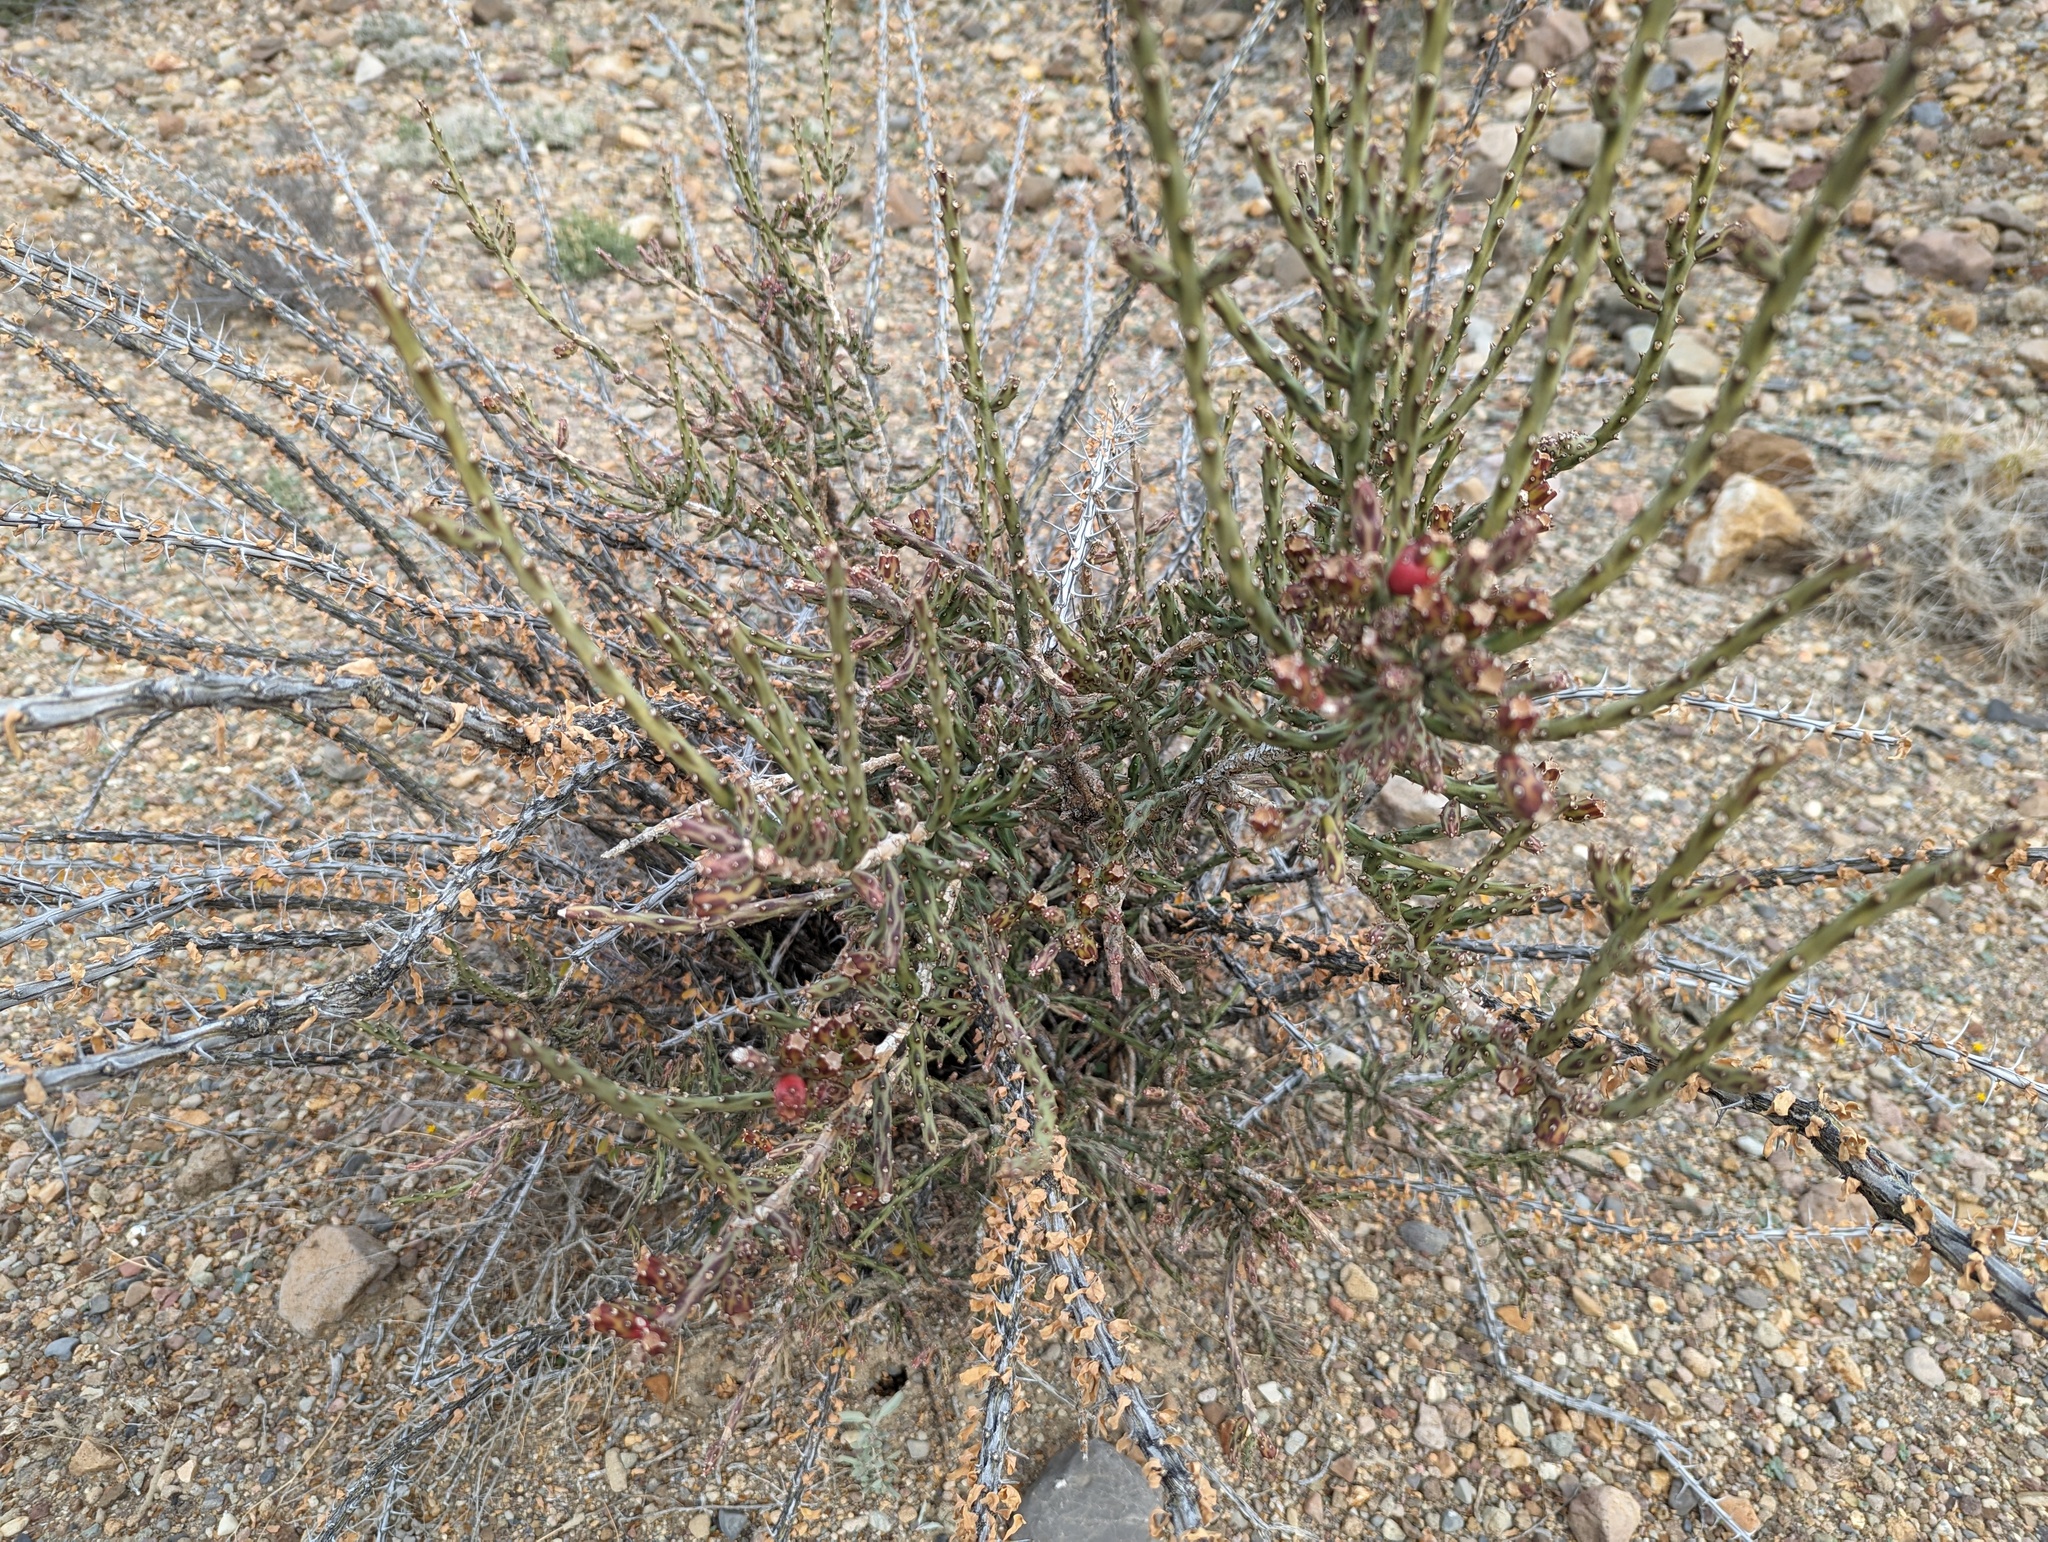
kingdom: Plantae
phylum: Tracheophyta
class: Magnoliopsida
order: Caryophyllales
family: Cactaceae
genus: Cylindropuntia
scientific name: Cylindropuntia leptocaulis
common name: Christmas cactus
